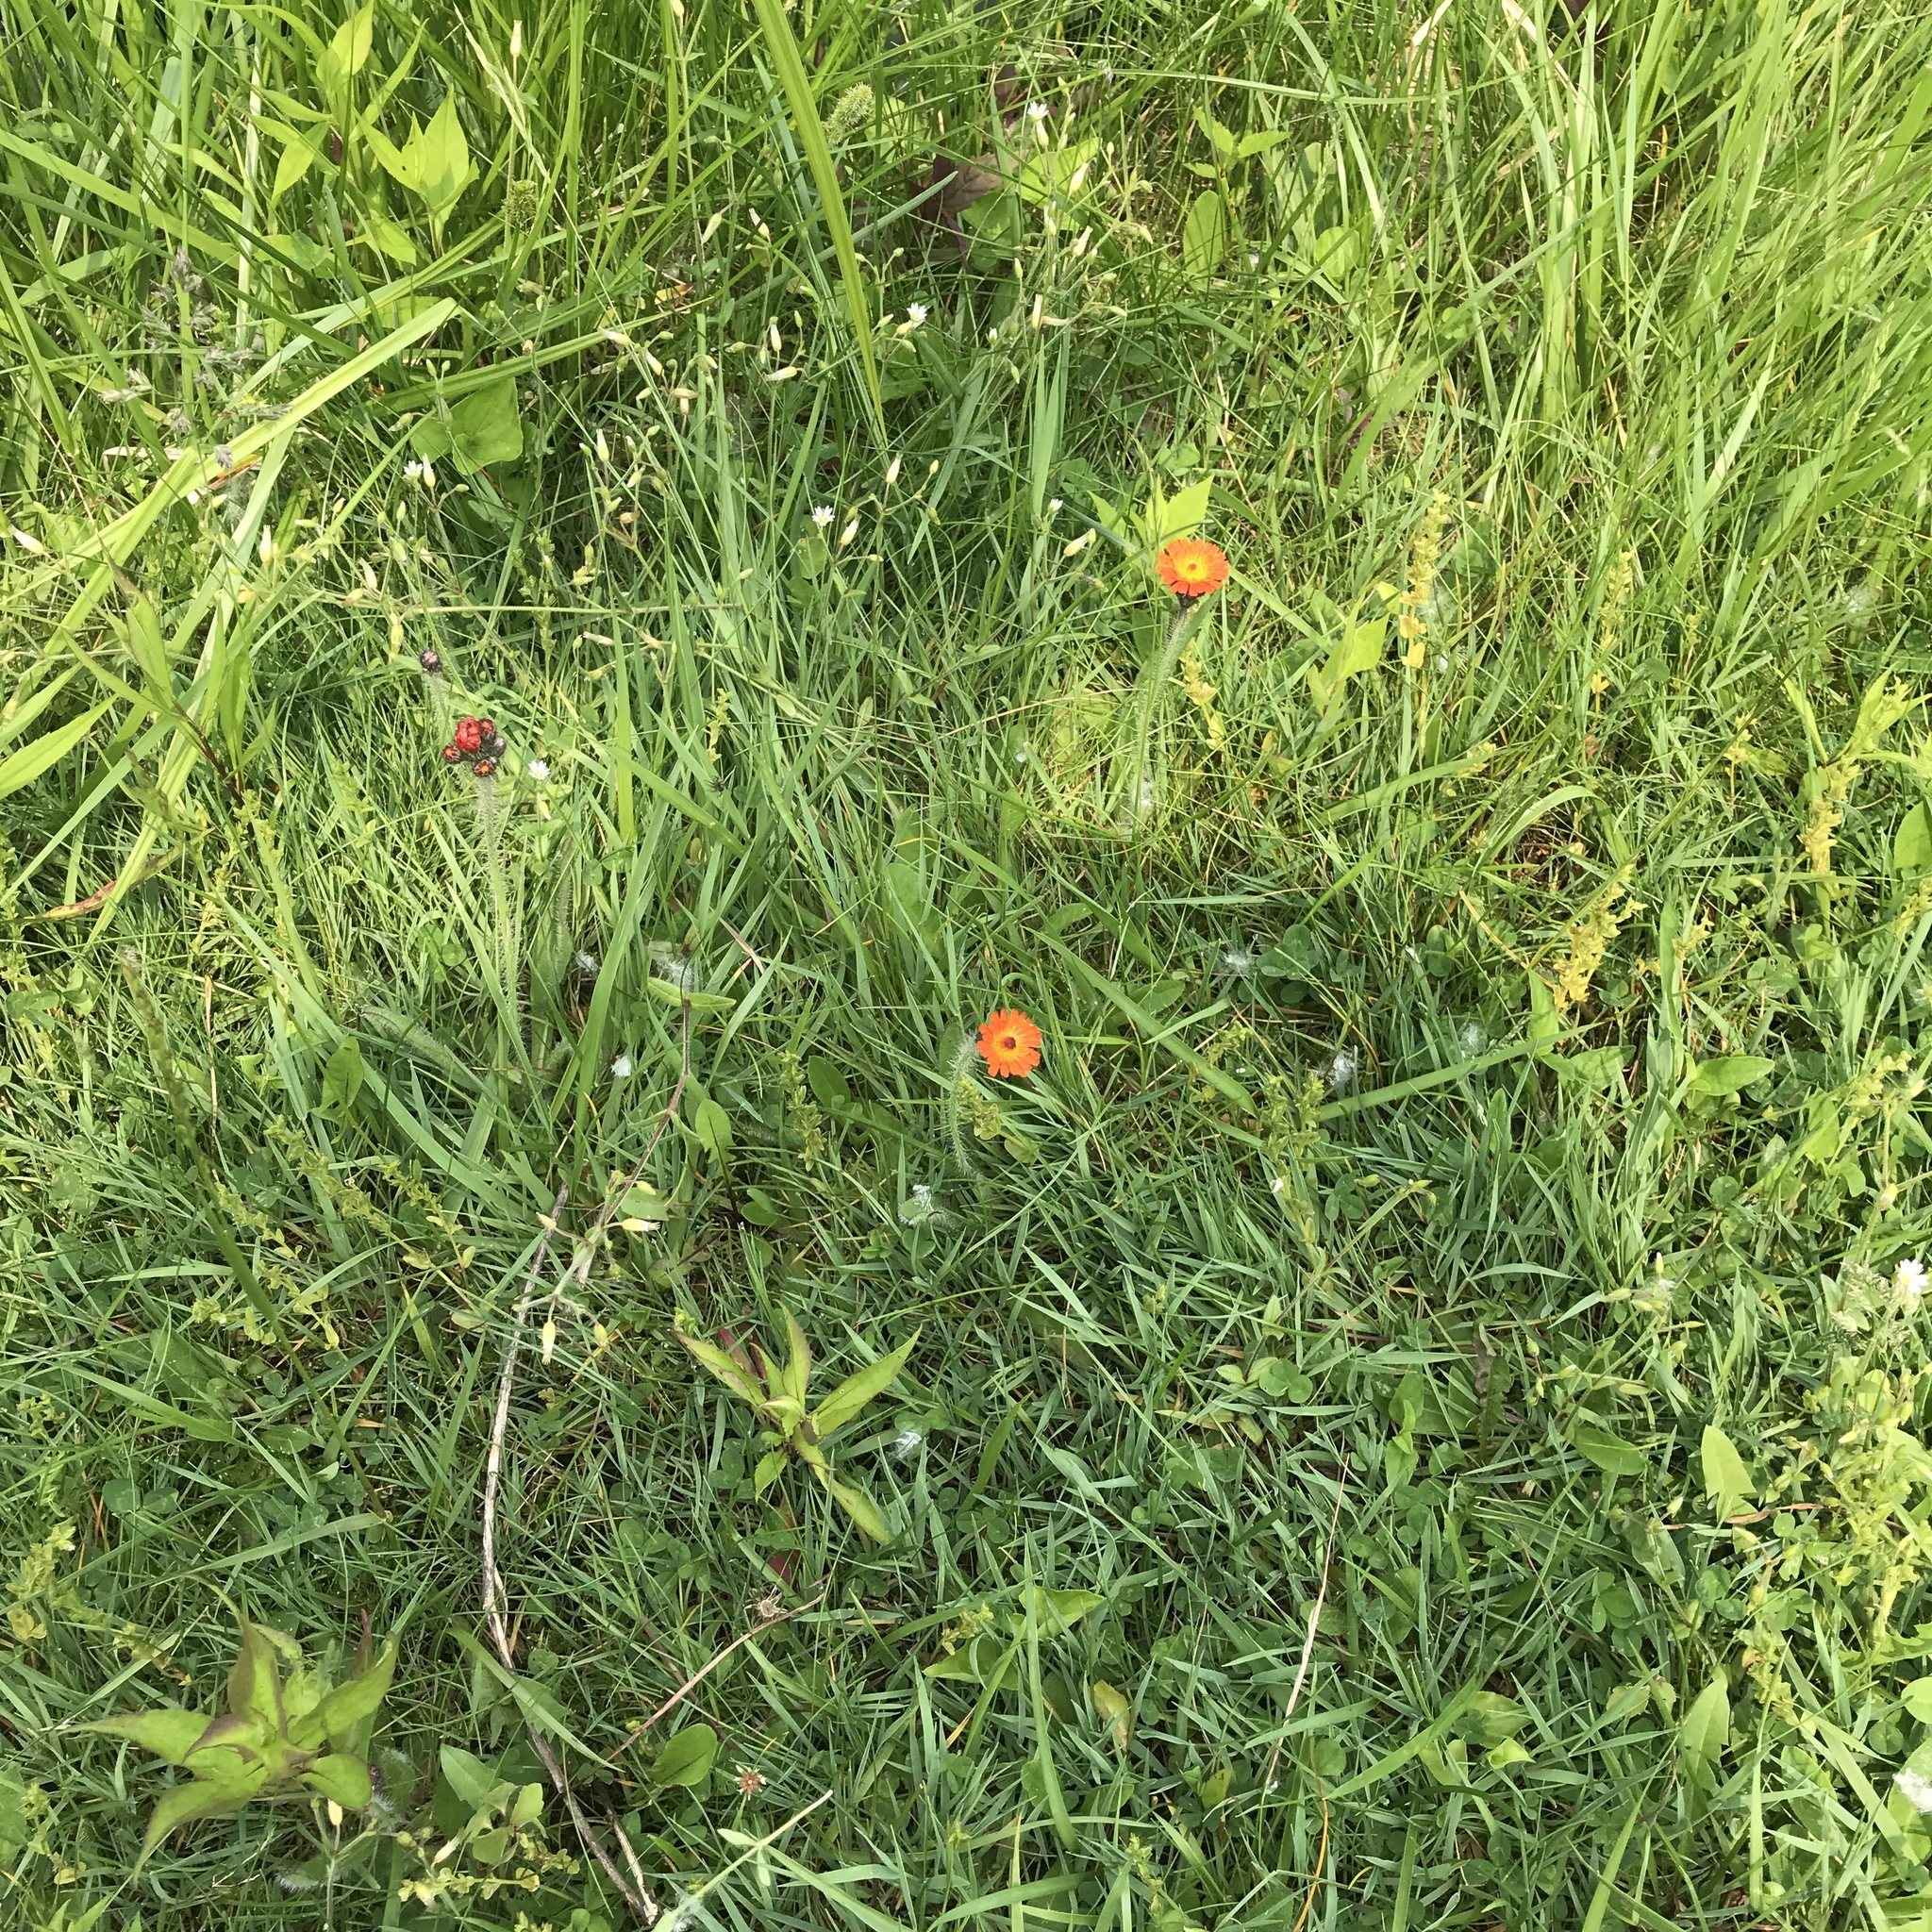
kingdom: Plantae
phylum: Tracheophyta
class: Magnoliopsida
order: Asterales
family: Asteraceae
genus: Pilosella
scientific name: Pilosella aurantiaca
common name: Fox-and-cubs
